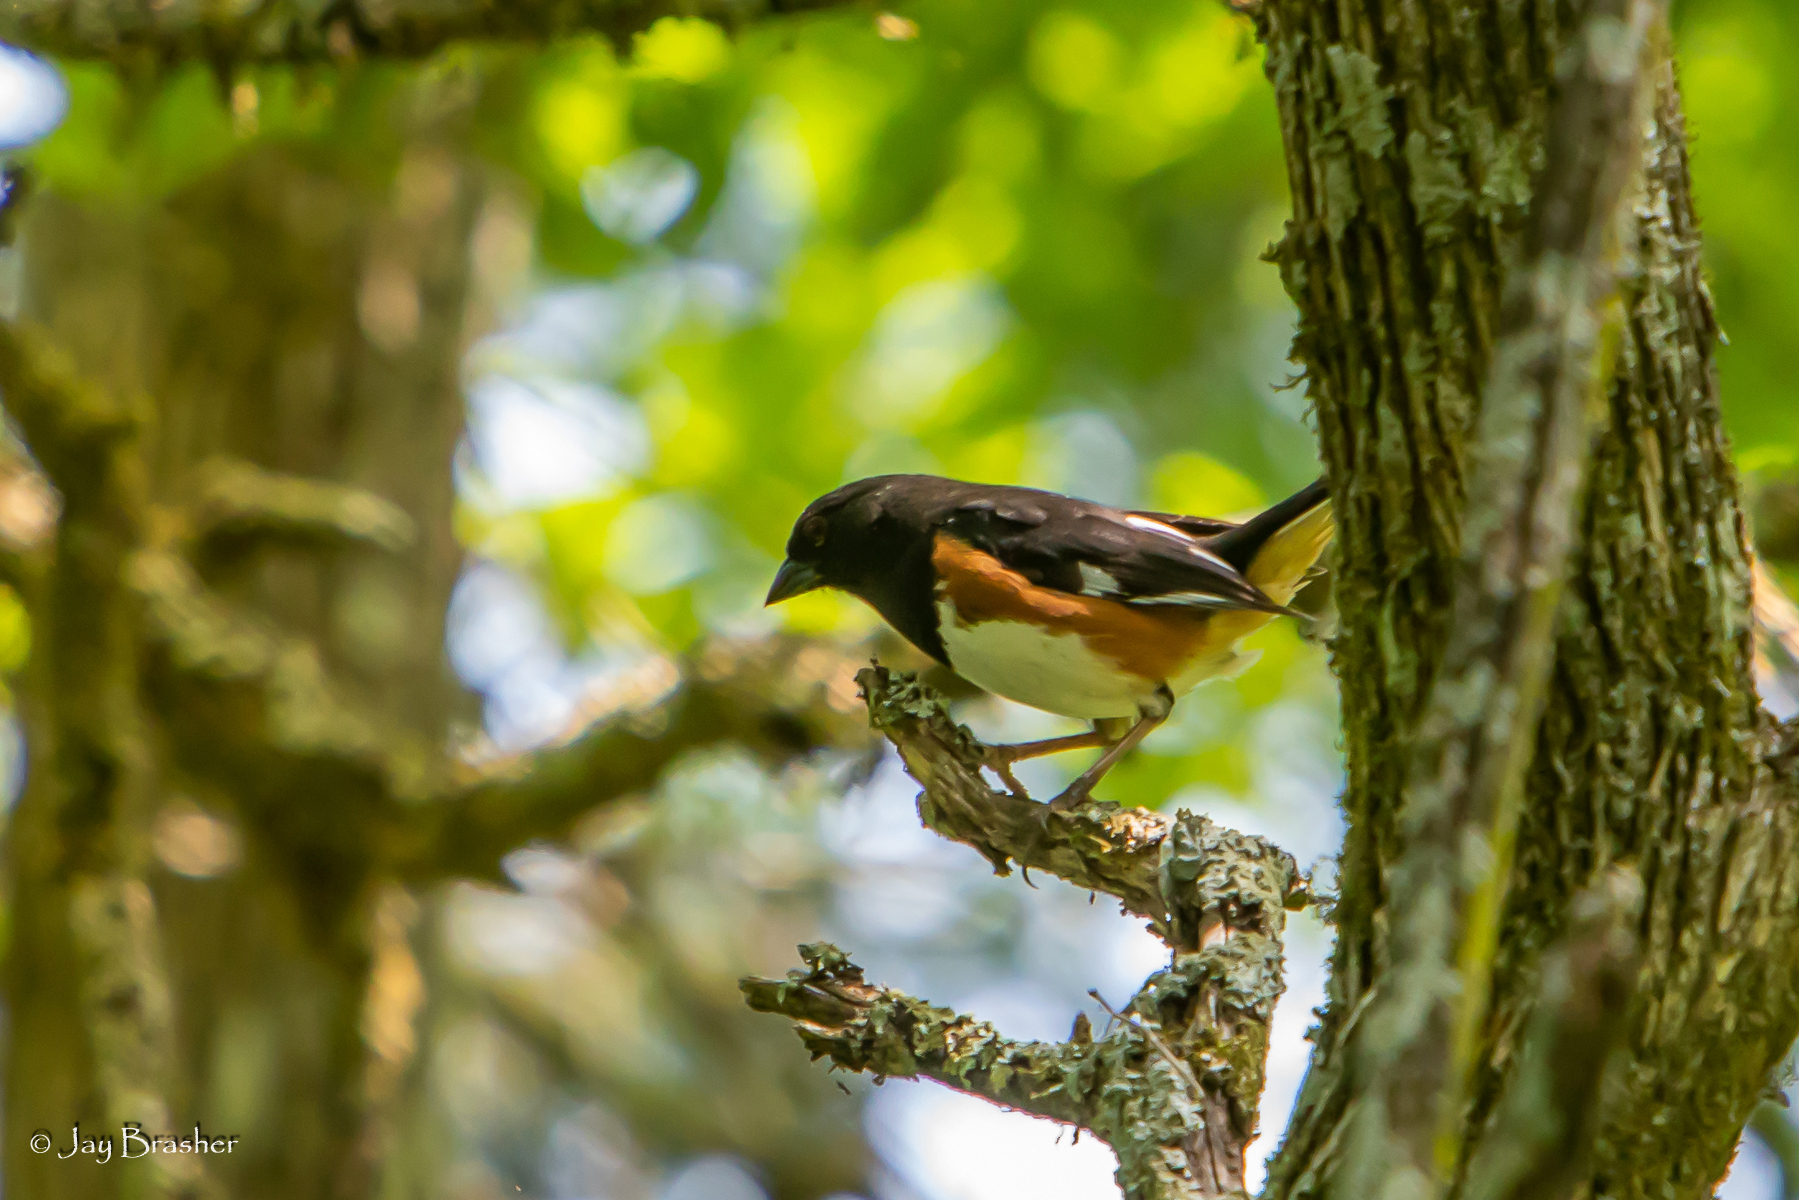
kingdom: Animalia
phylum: Chordata
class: Aves
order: Passeriformes
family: Passerellidae
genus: Pipilo
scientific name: Pipilo erythrophthalmus
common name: Eastern towhee
